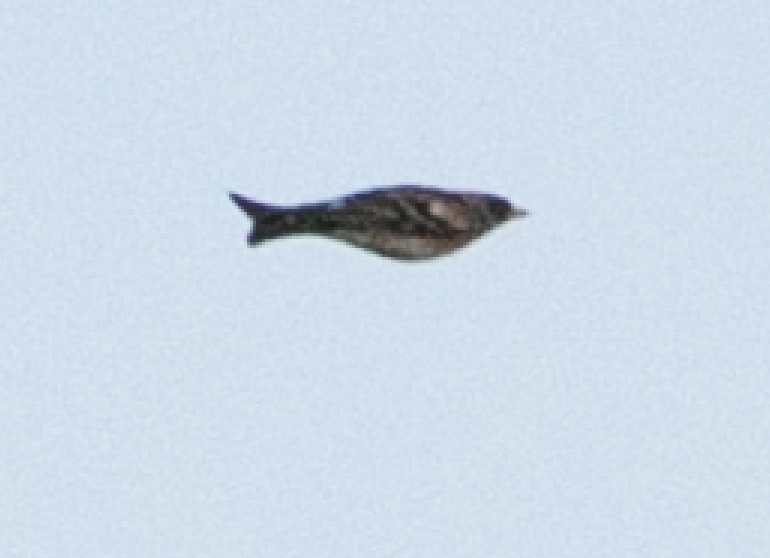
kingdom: Animalia
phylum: Chordata
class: Aves
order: Passeriformes
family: Fringillidae
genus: Fringilla
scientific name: Fringilla montifringilla
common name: Brambling
